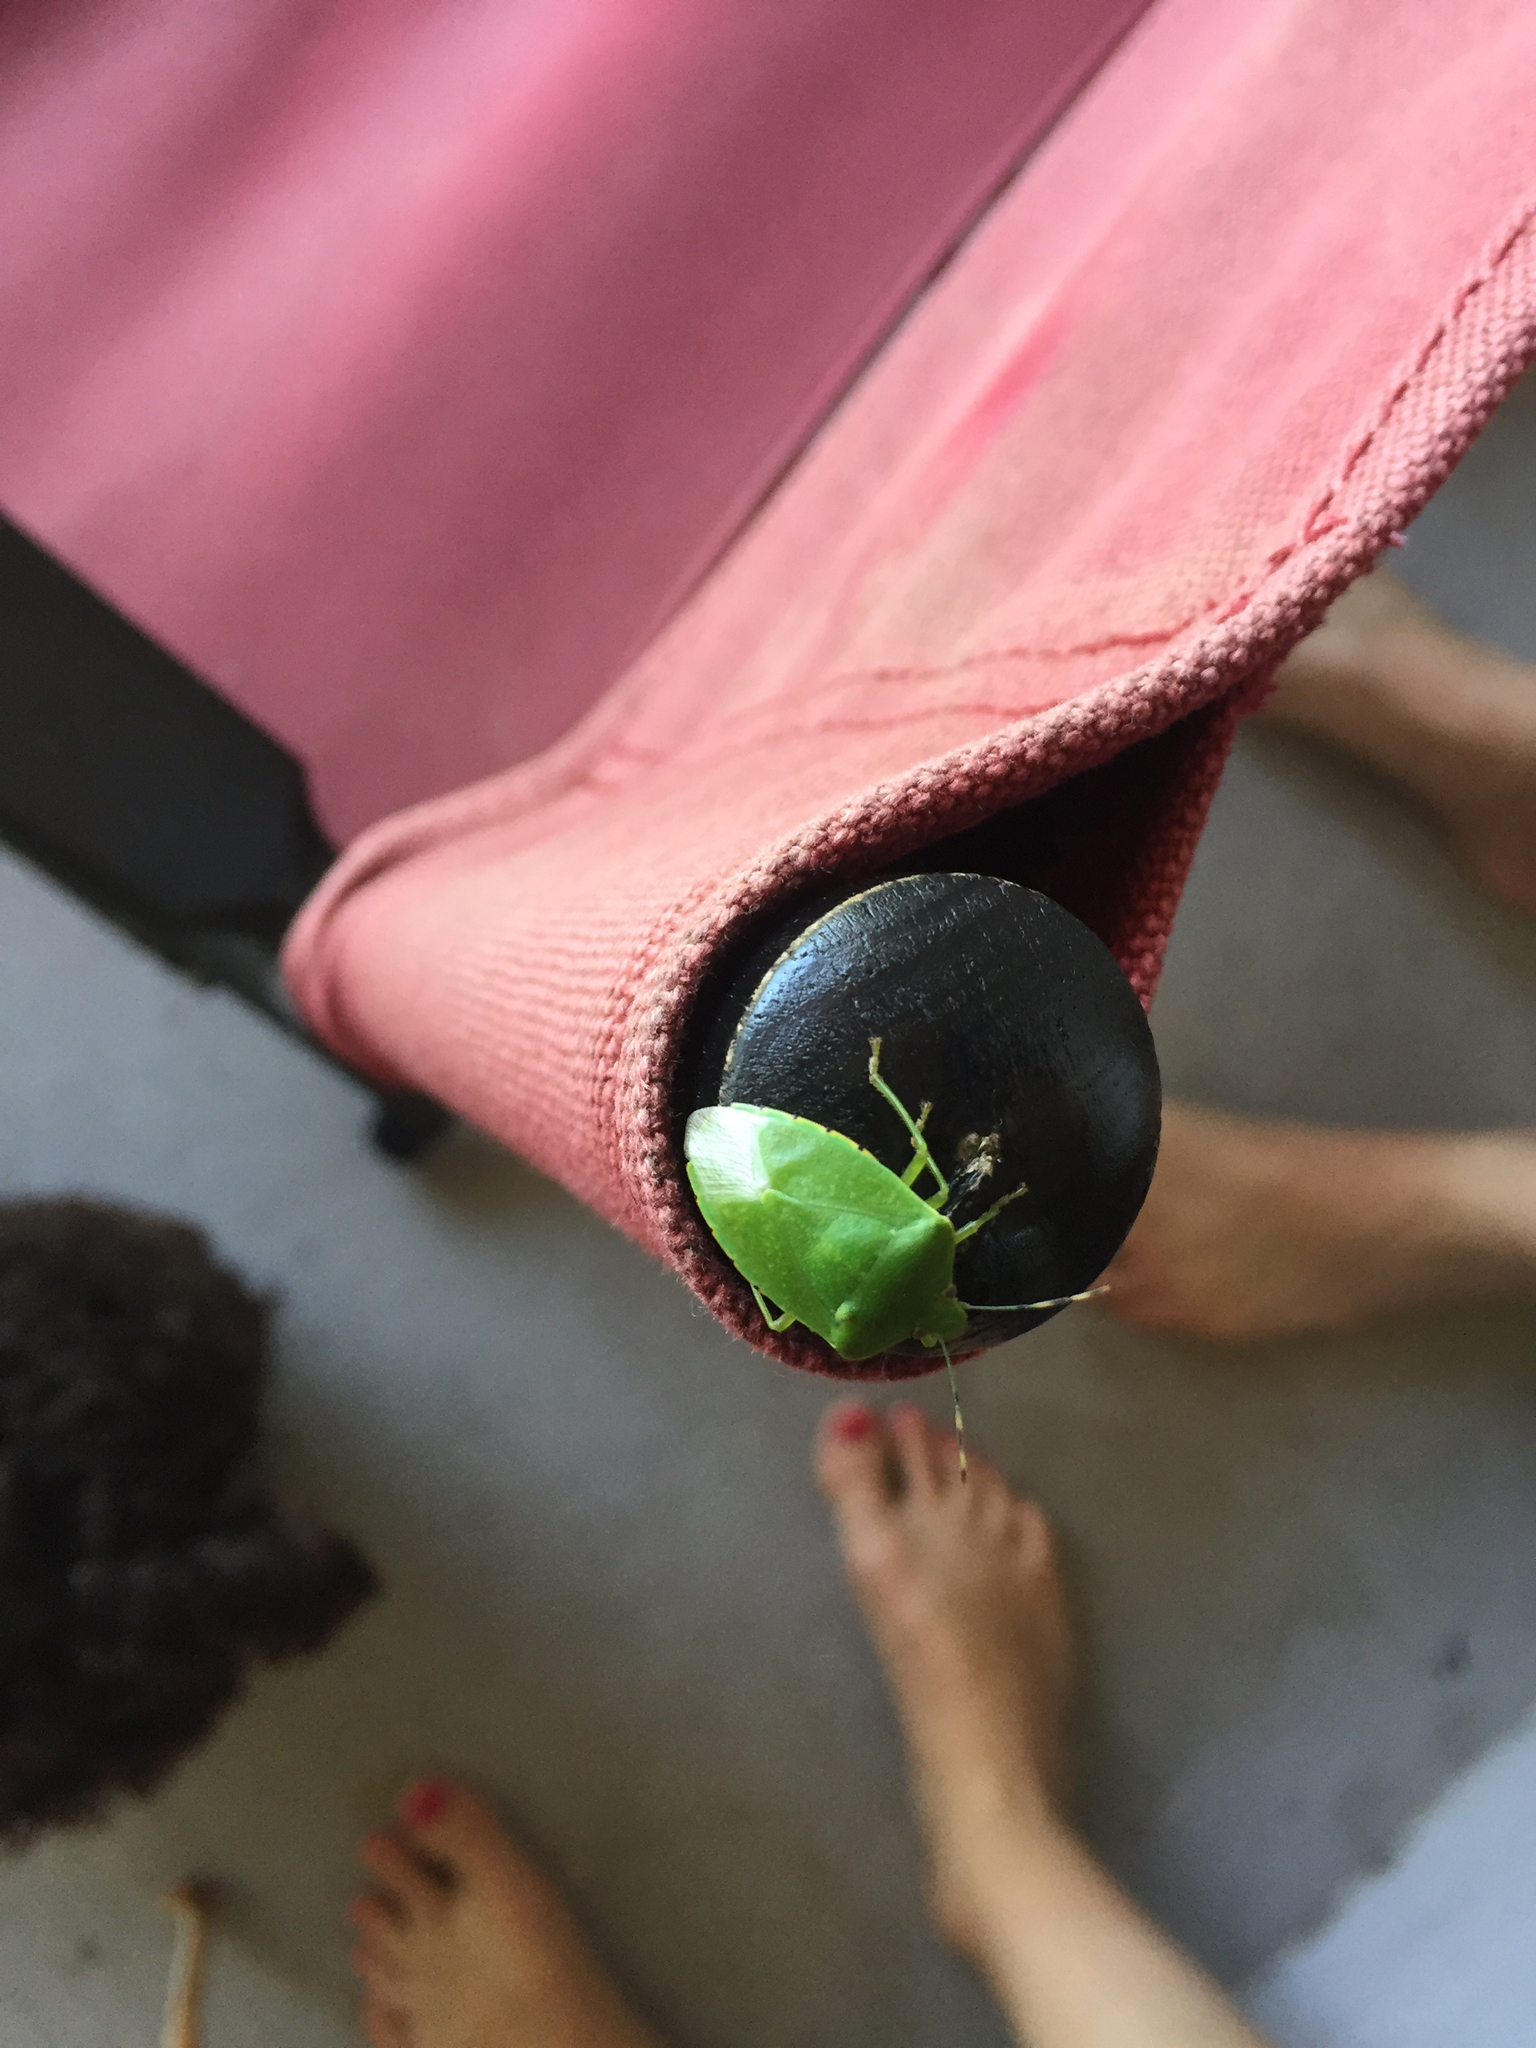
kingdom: Animalia
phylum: Arthropoda
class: Insecta
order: Hemiptera
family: Pentatomidae
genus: Chinavia
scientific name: Chinavia hilaris
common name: Green stink bug
